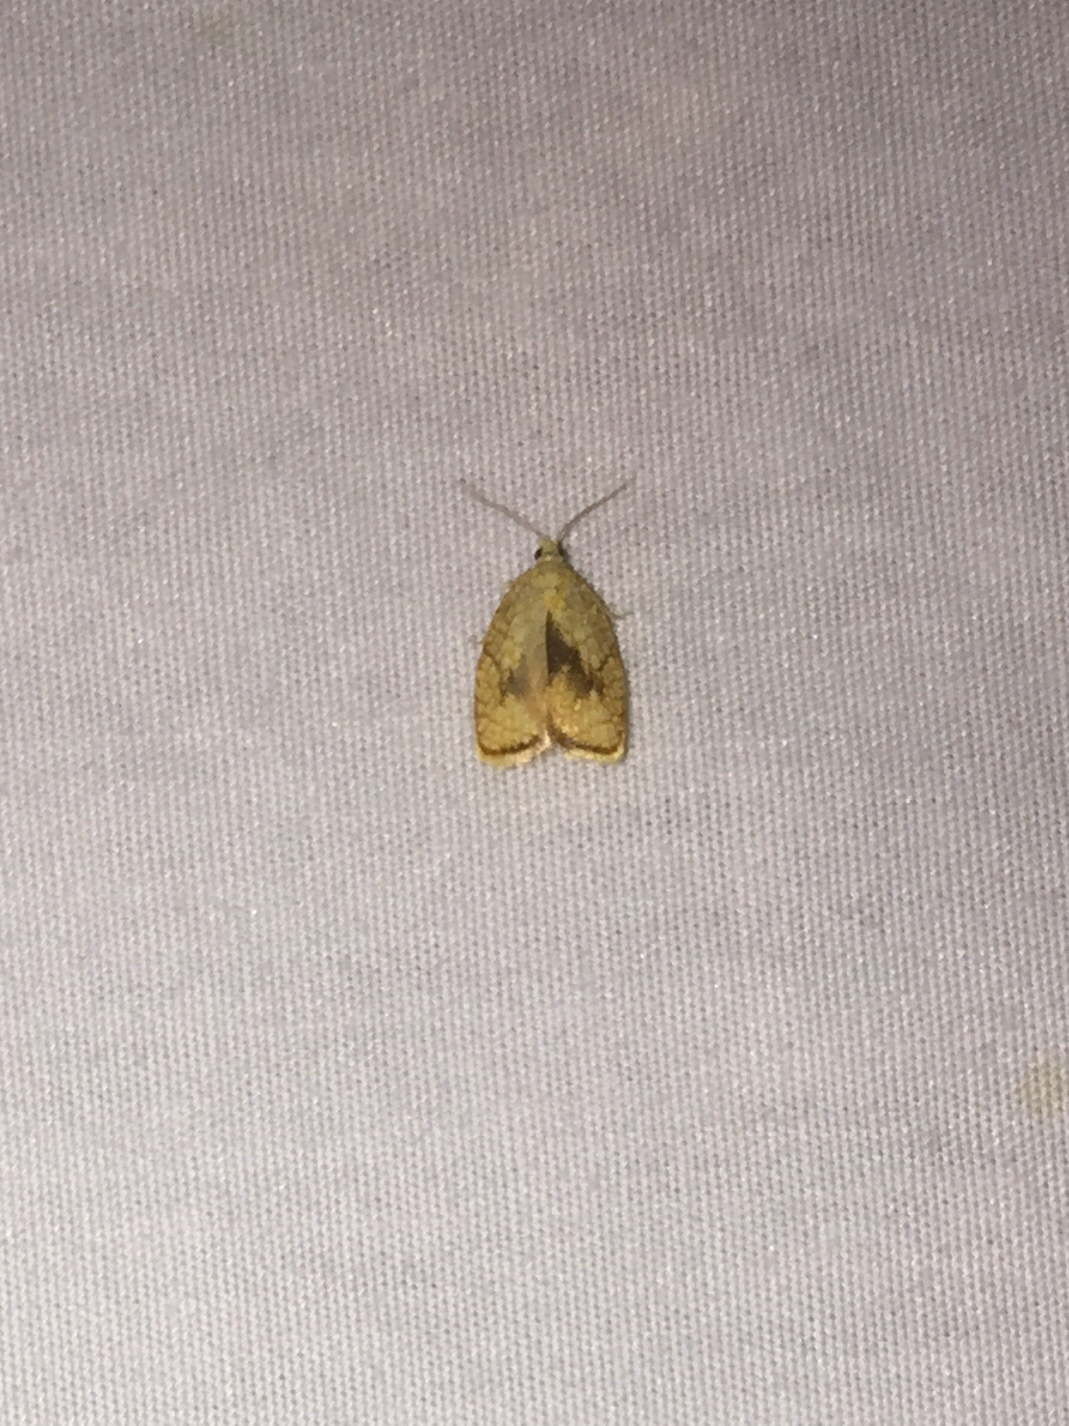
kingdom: Animalia
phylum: Arthropoda
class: Insecta
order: Lepidoptera
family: Tortricidae
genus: Acleris
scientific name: Acleris forsskaleana
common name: Maple button
